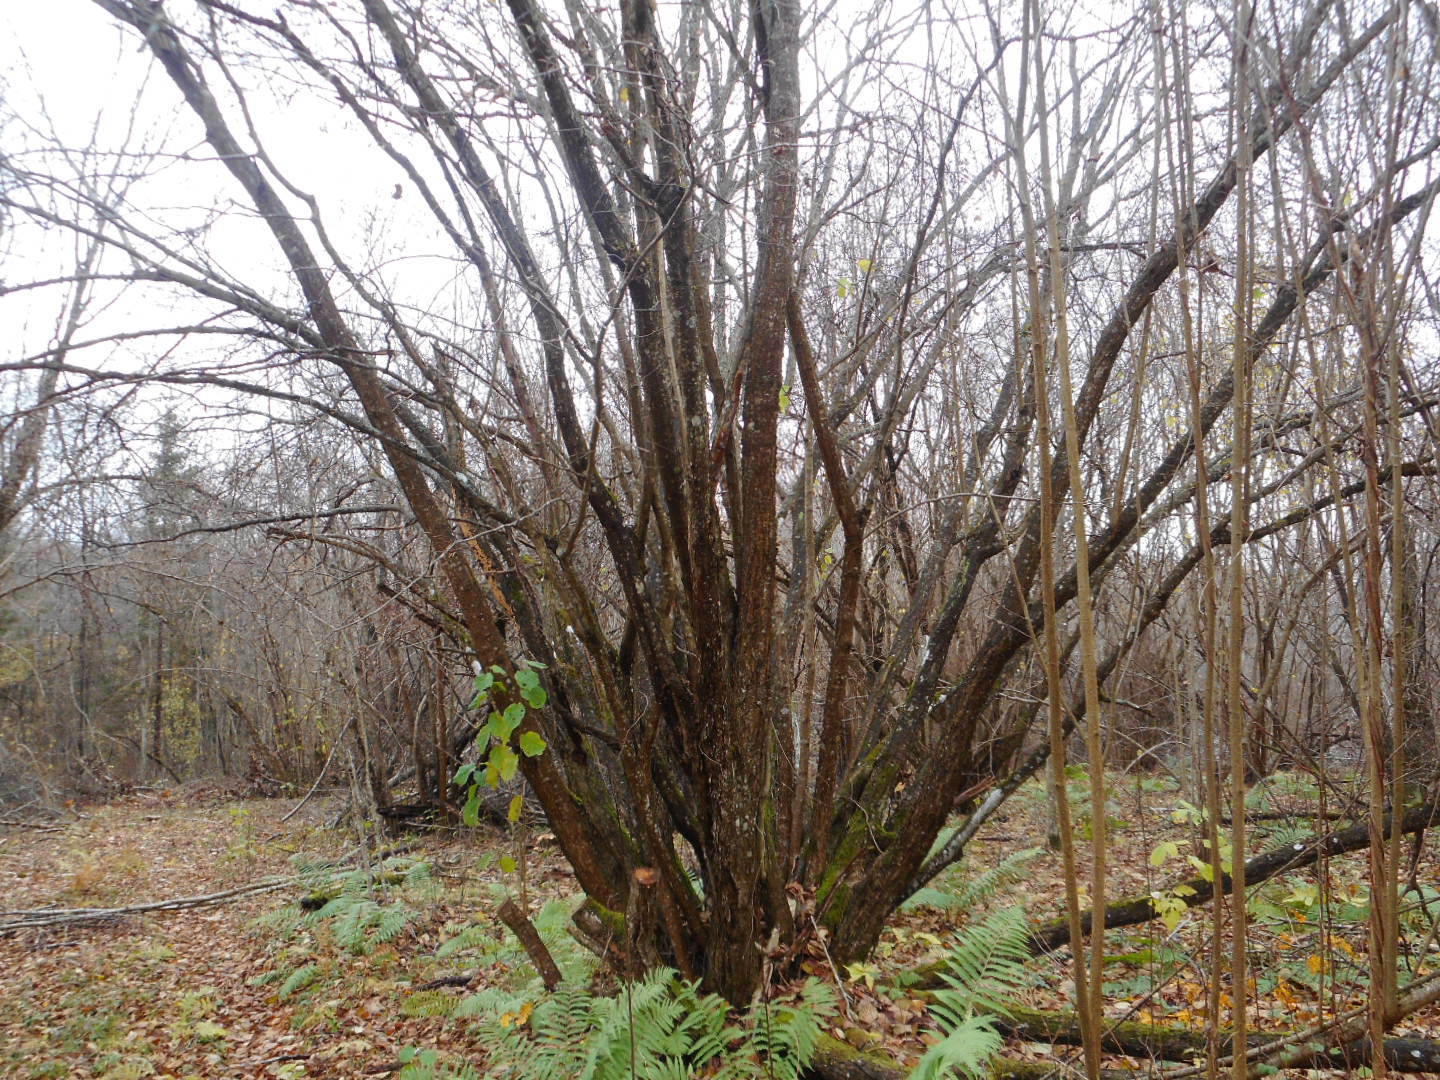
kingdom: Plantae
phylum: Tracheophyta
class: Magnoliopsida
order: Fagales
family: Betulaceae
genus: Corylus
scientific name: Corylus avellana
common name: European hazel
